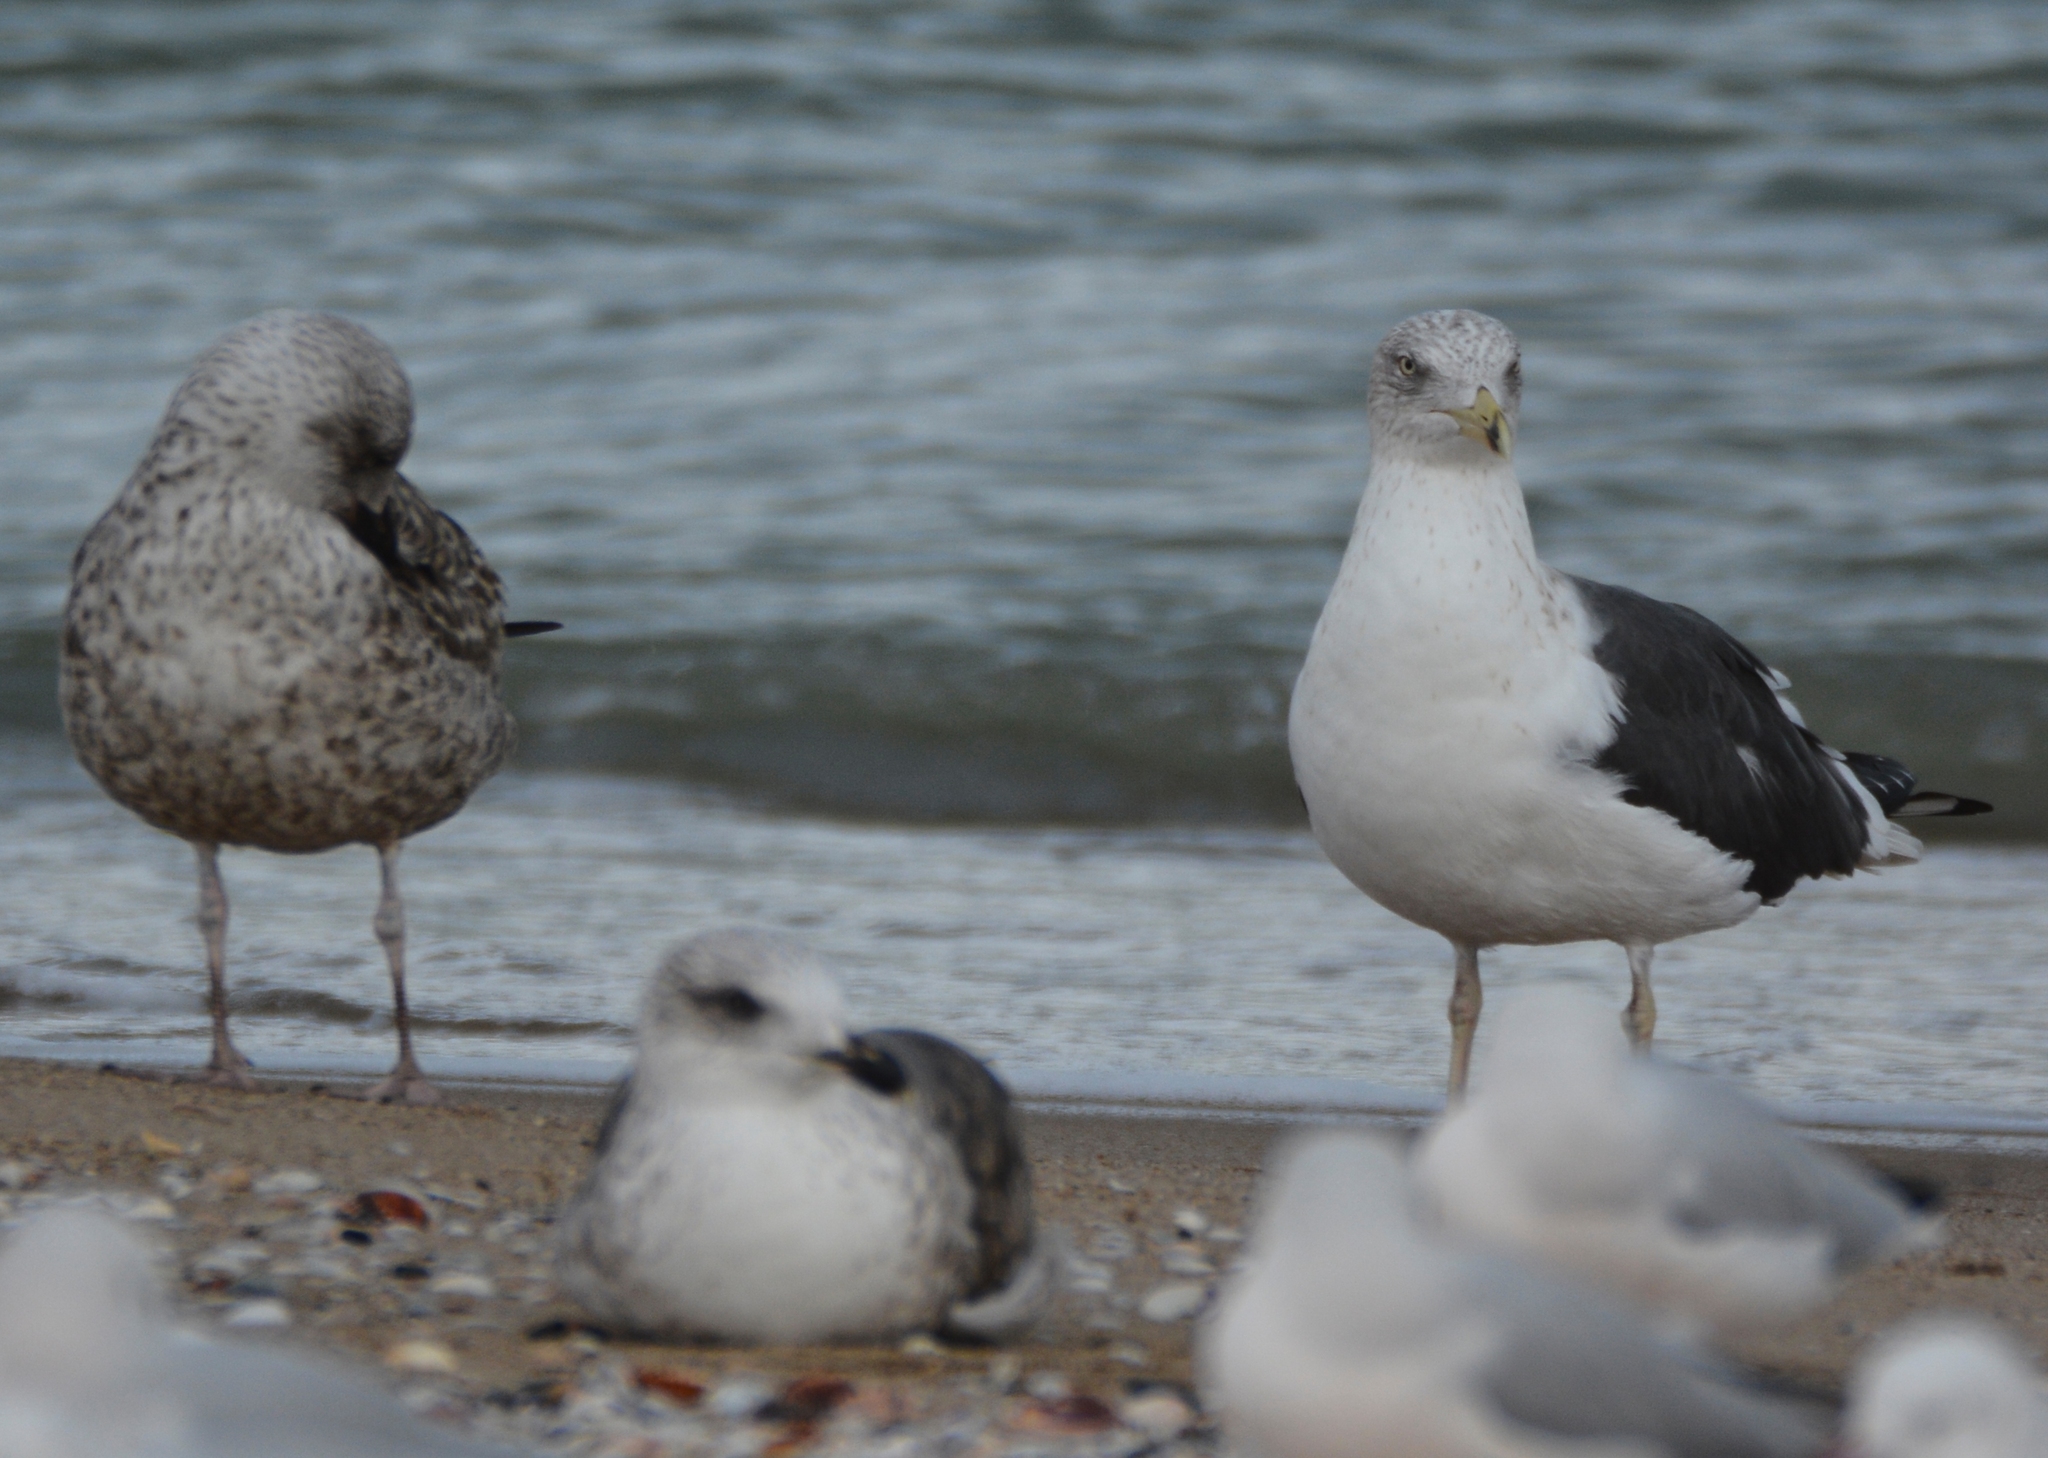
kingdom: Animalia
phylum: Chordata
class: Aves
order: Charadriiformes
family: Laridae
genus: Larus
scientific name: Larus fuscus
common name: Lesser black-backed gull
